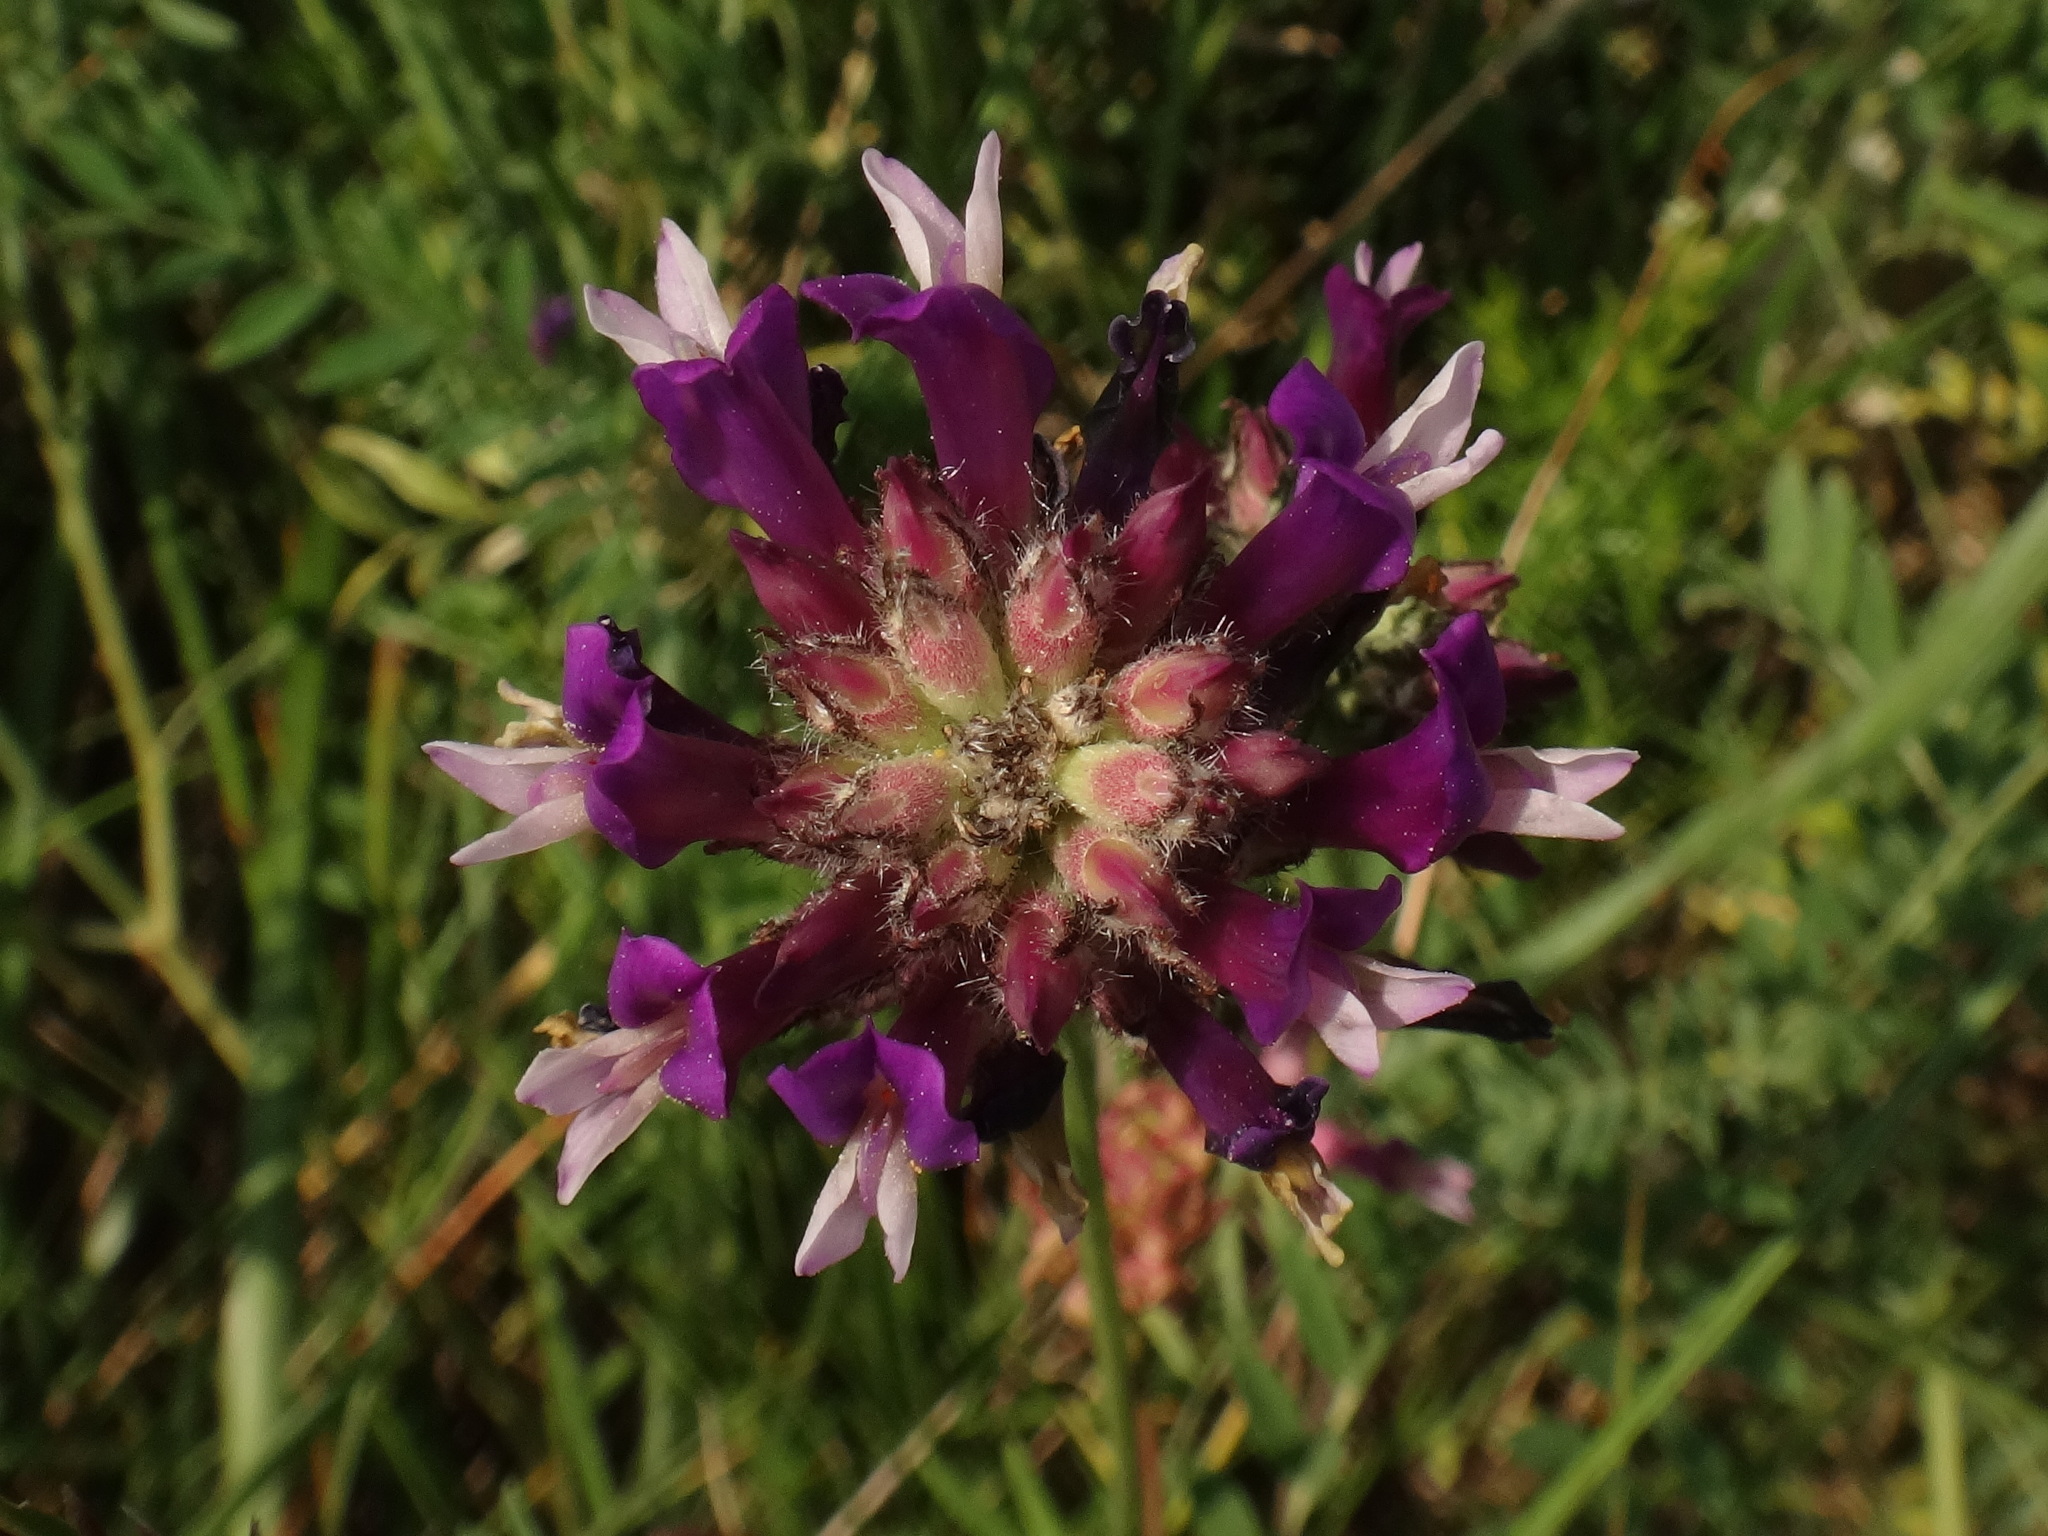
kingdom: Plantae
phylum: Tracheophyta
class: Magnoliopsida
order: Fabales
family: Fabaceae
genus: Astragalus
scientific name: Astragalus vesicarius
